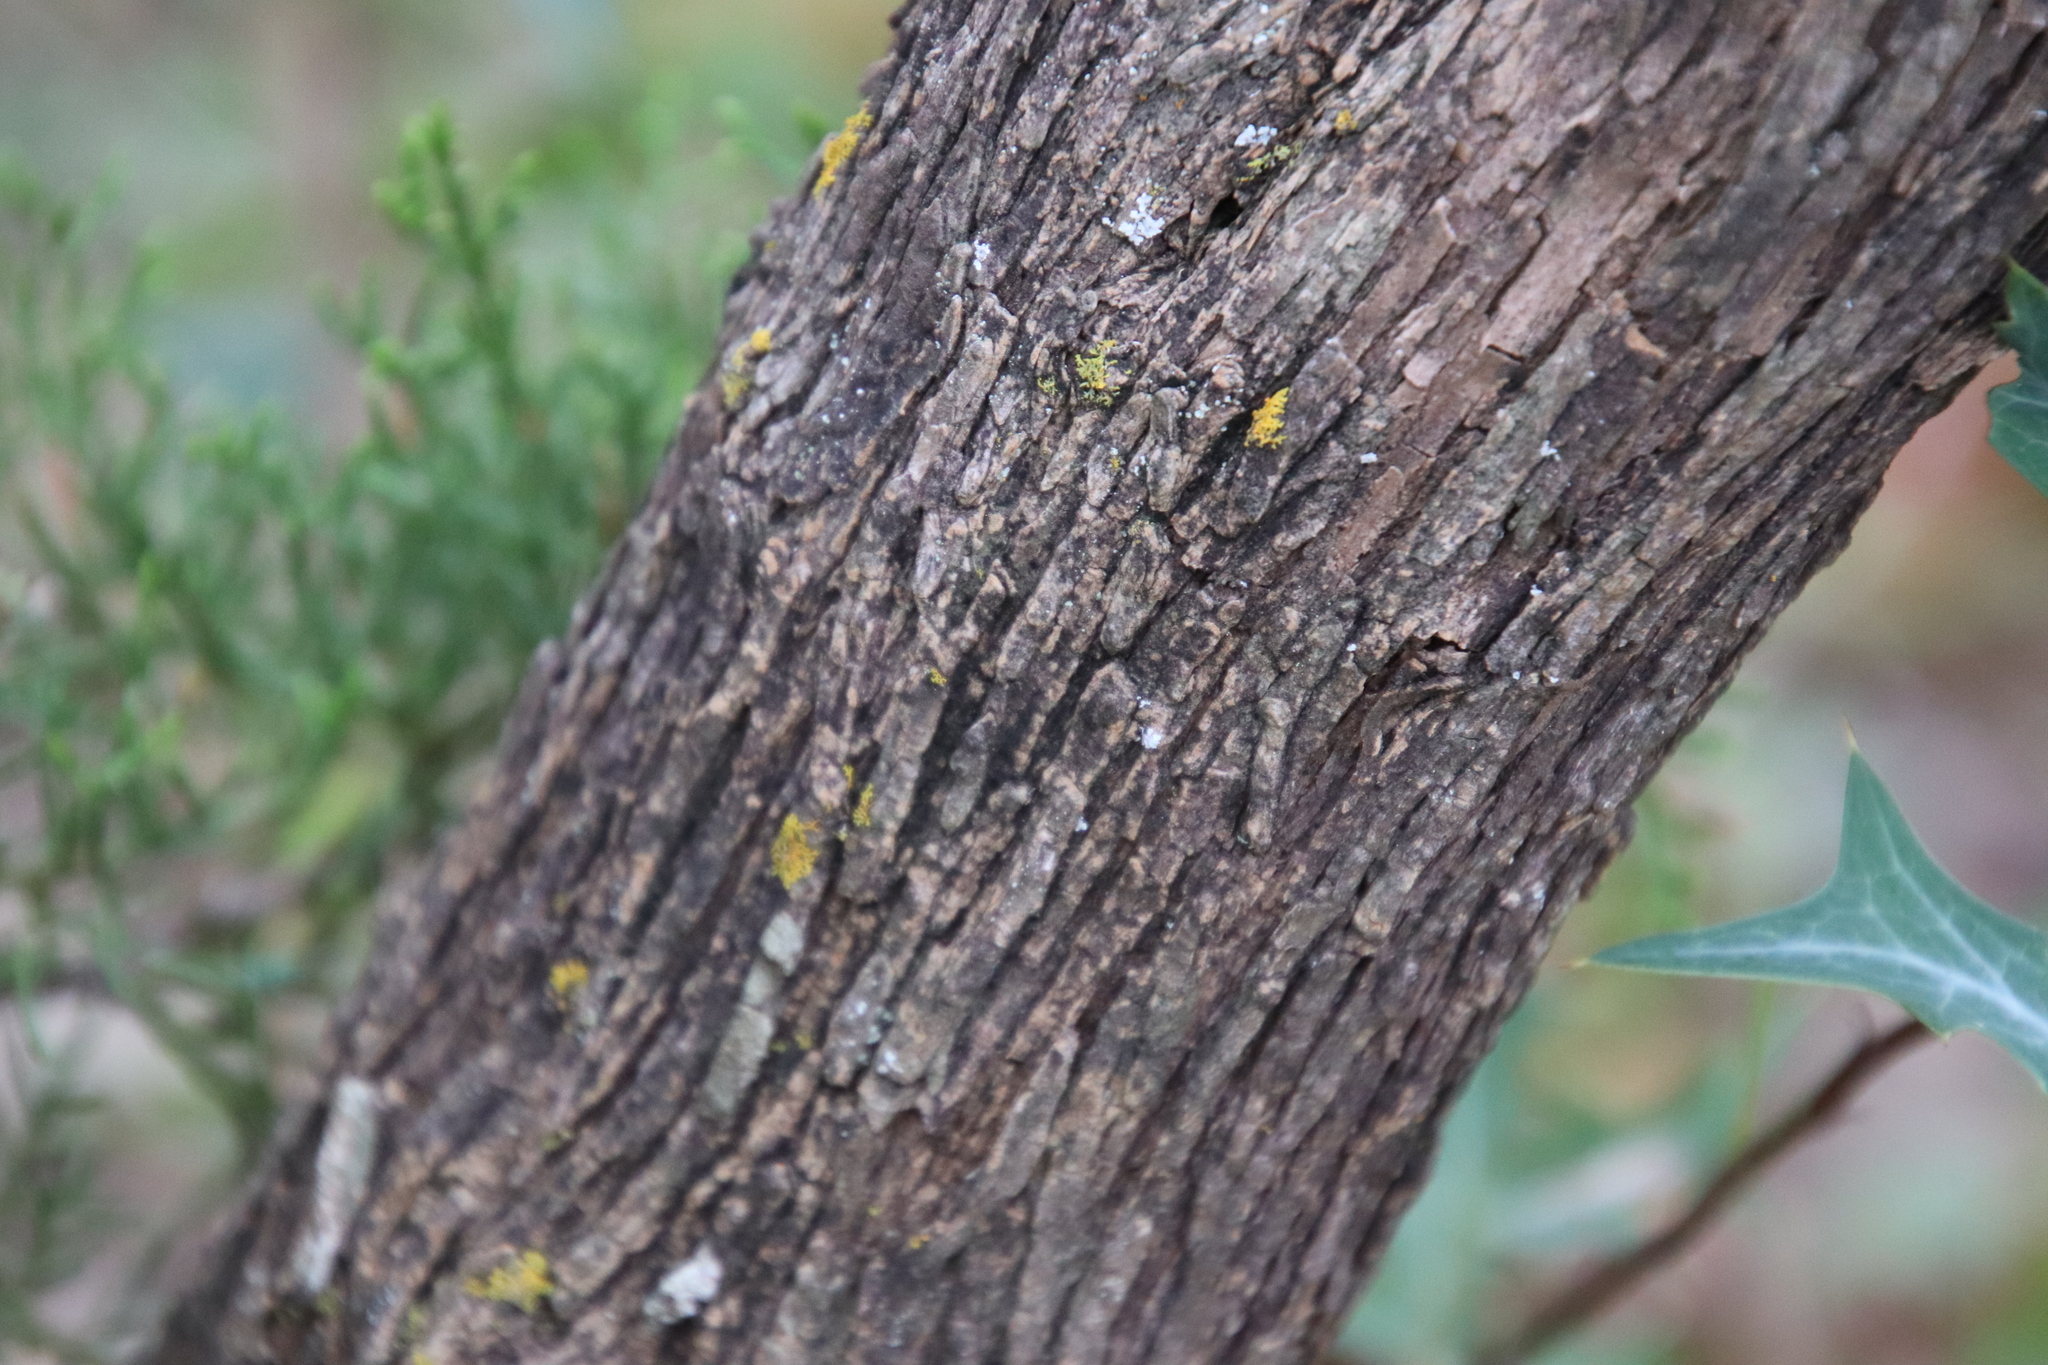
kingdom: Plantae
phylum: Tracheophyta
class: Magnoliopsida
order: Fabales
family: Fabaceae
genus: Dermatophyllum
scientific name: Dermatophyllum secundiflorum
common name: Texas-mountain-laurel
